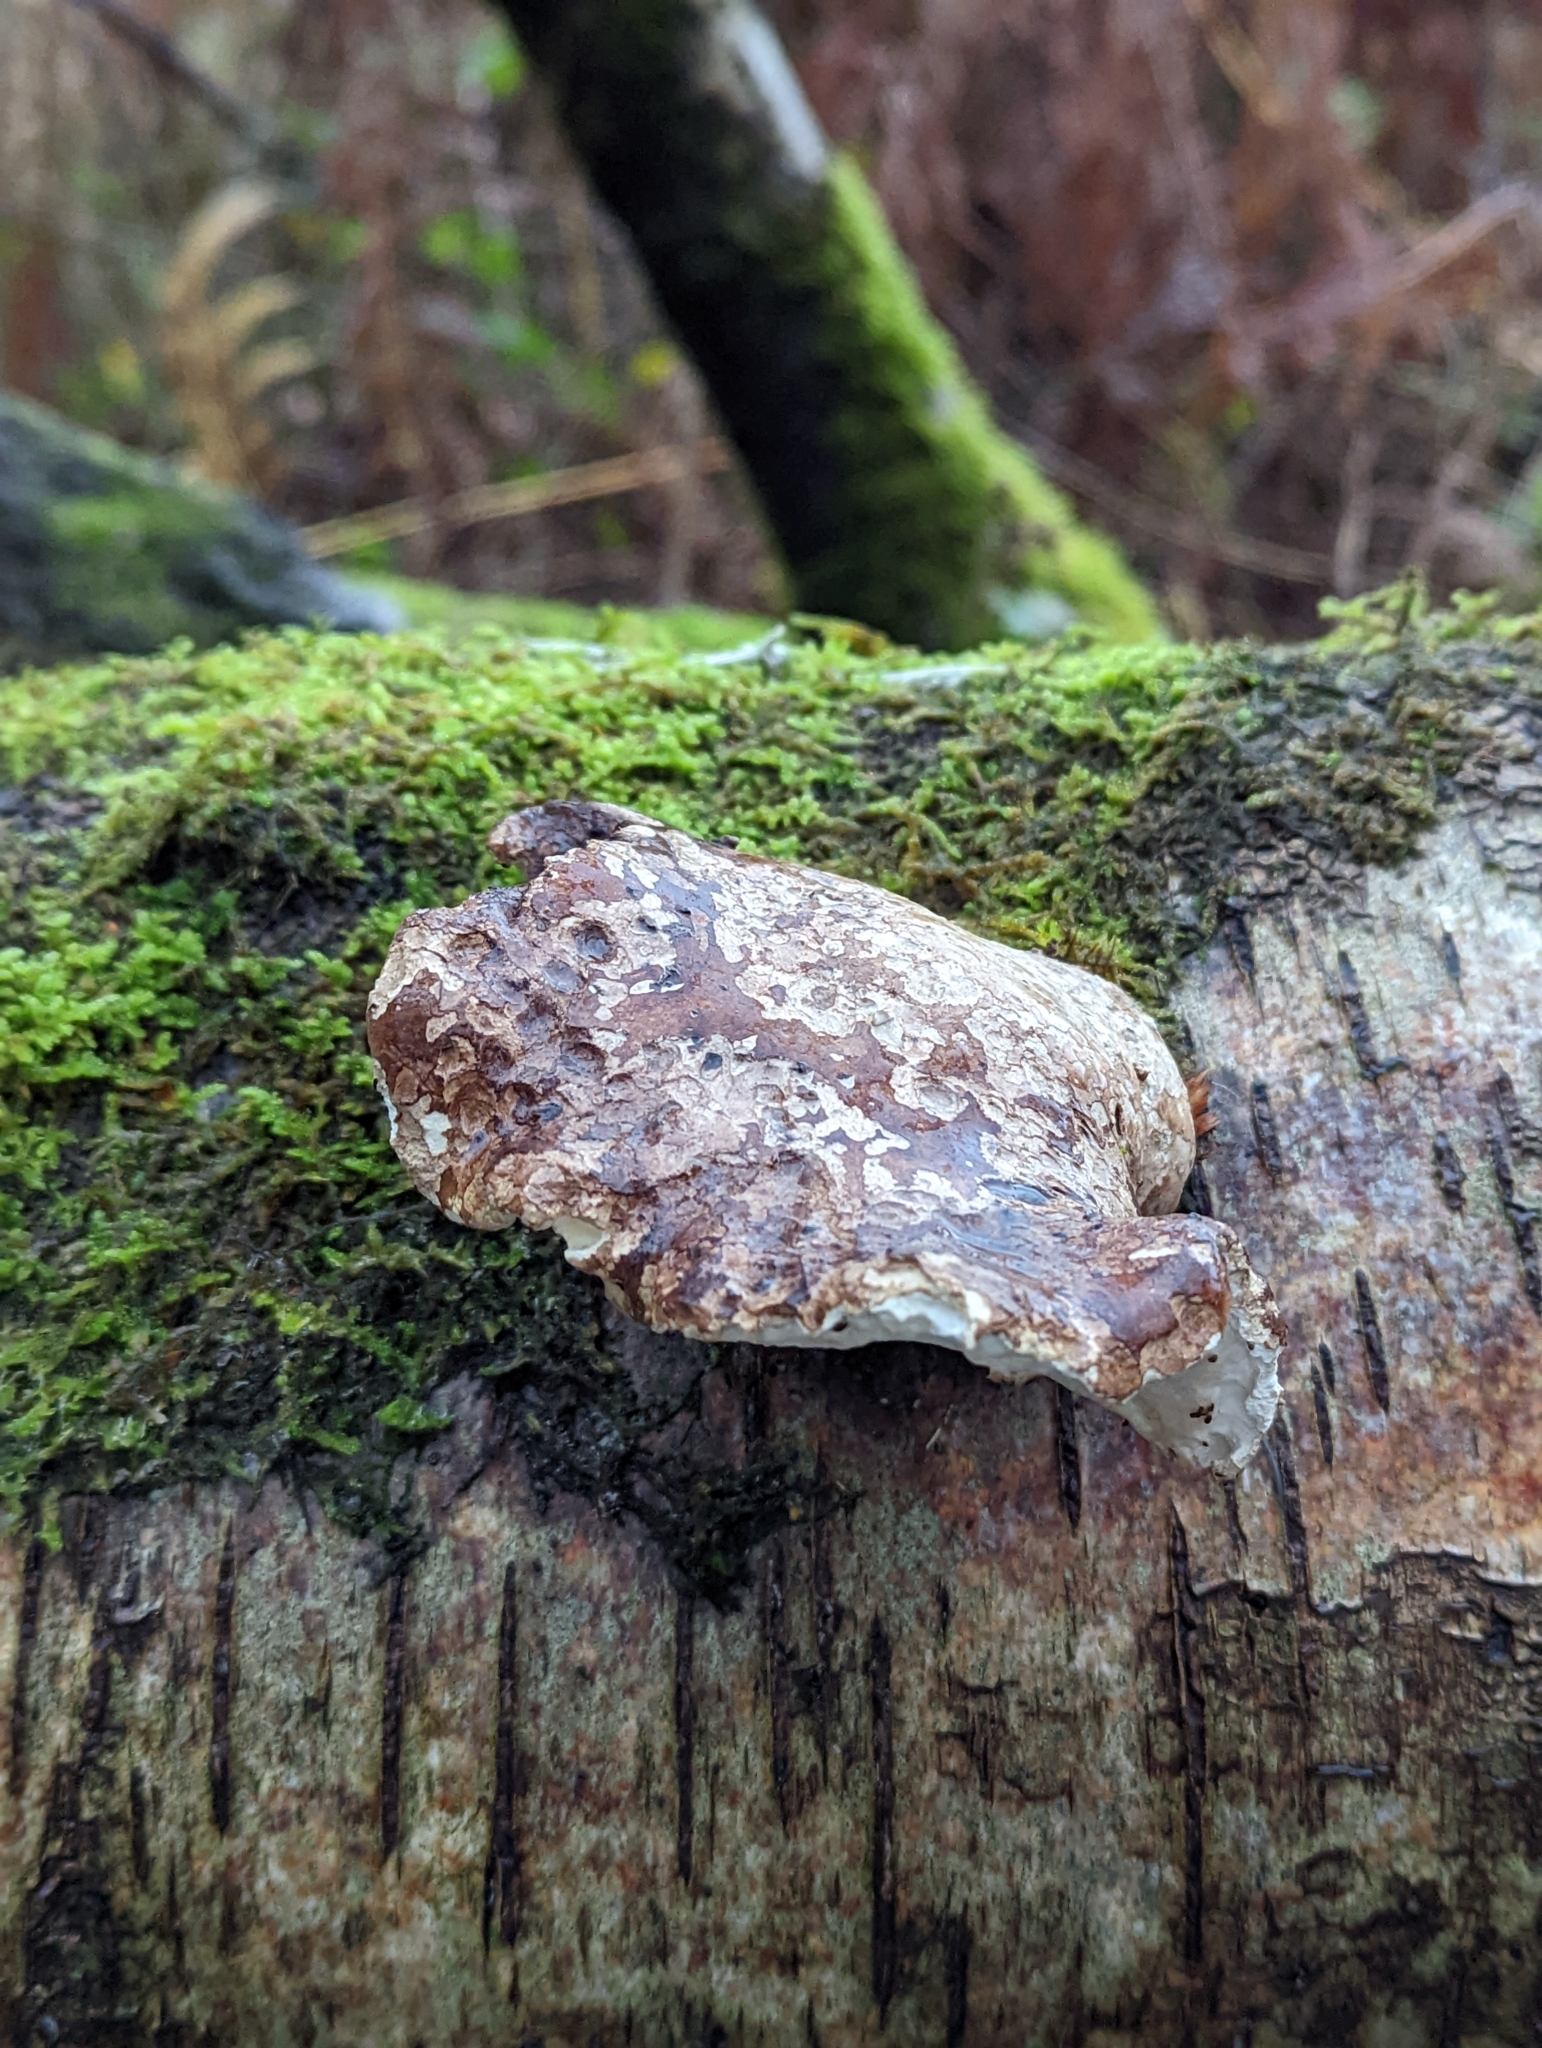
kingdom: Fungi
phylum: Basidiomycota
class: Agaricomycetes
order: Polyporales
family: Fomitopsidaceae
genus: Fomitopsis
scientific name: Fomitopsis betulina
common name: Birch polypore
